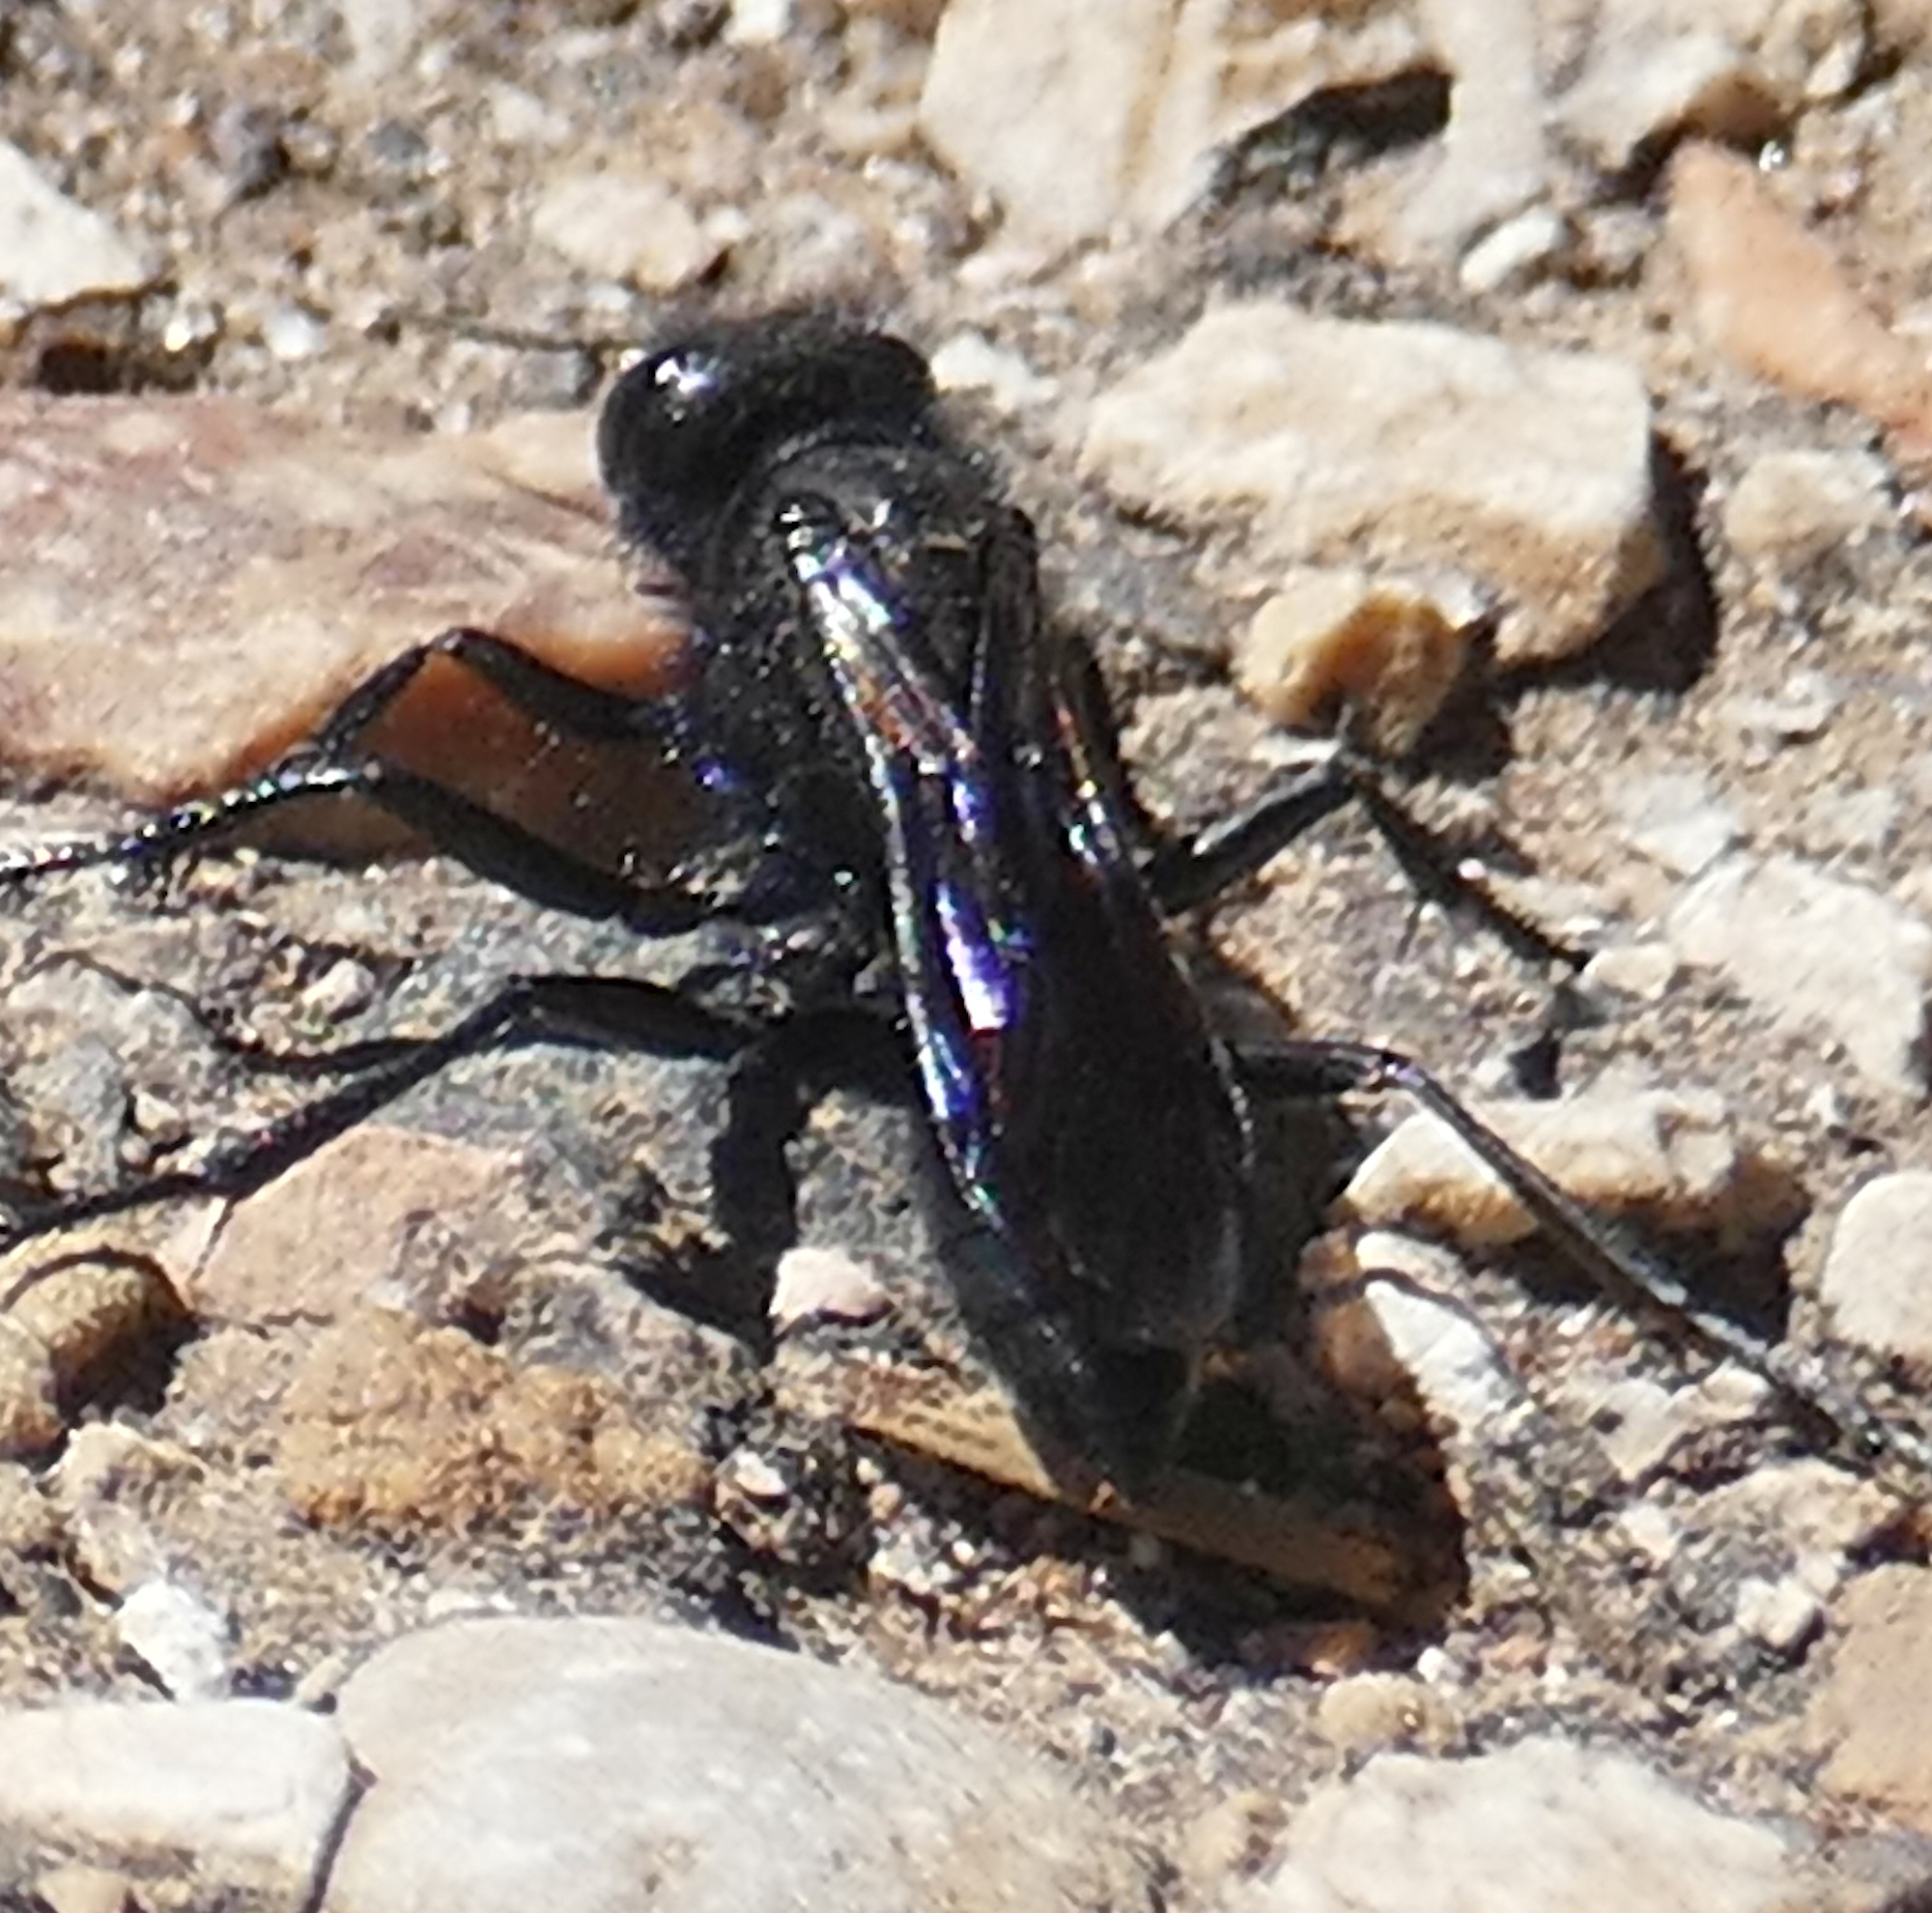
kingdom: Animalia
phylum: Arthropoda
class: Insecta
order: Hymenoptera
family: Sphecidae
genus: Podalonia
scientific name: Podalonia
